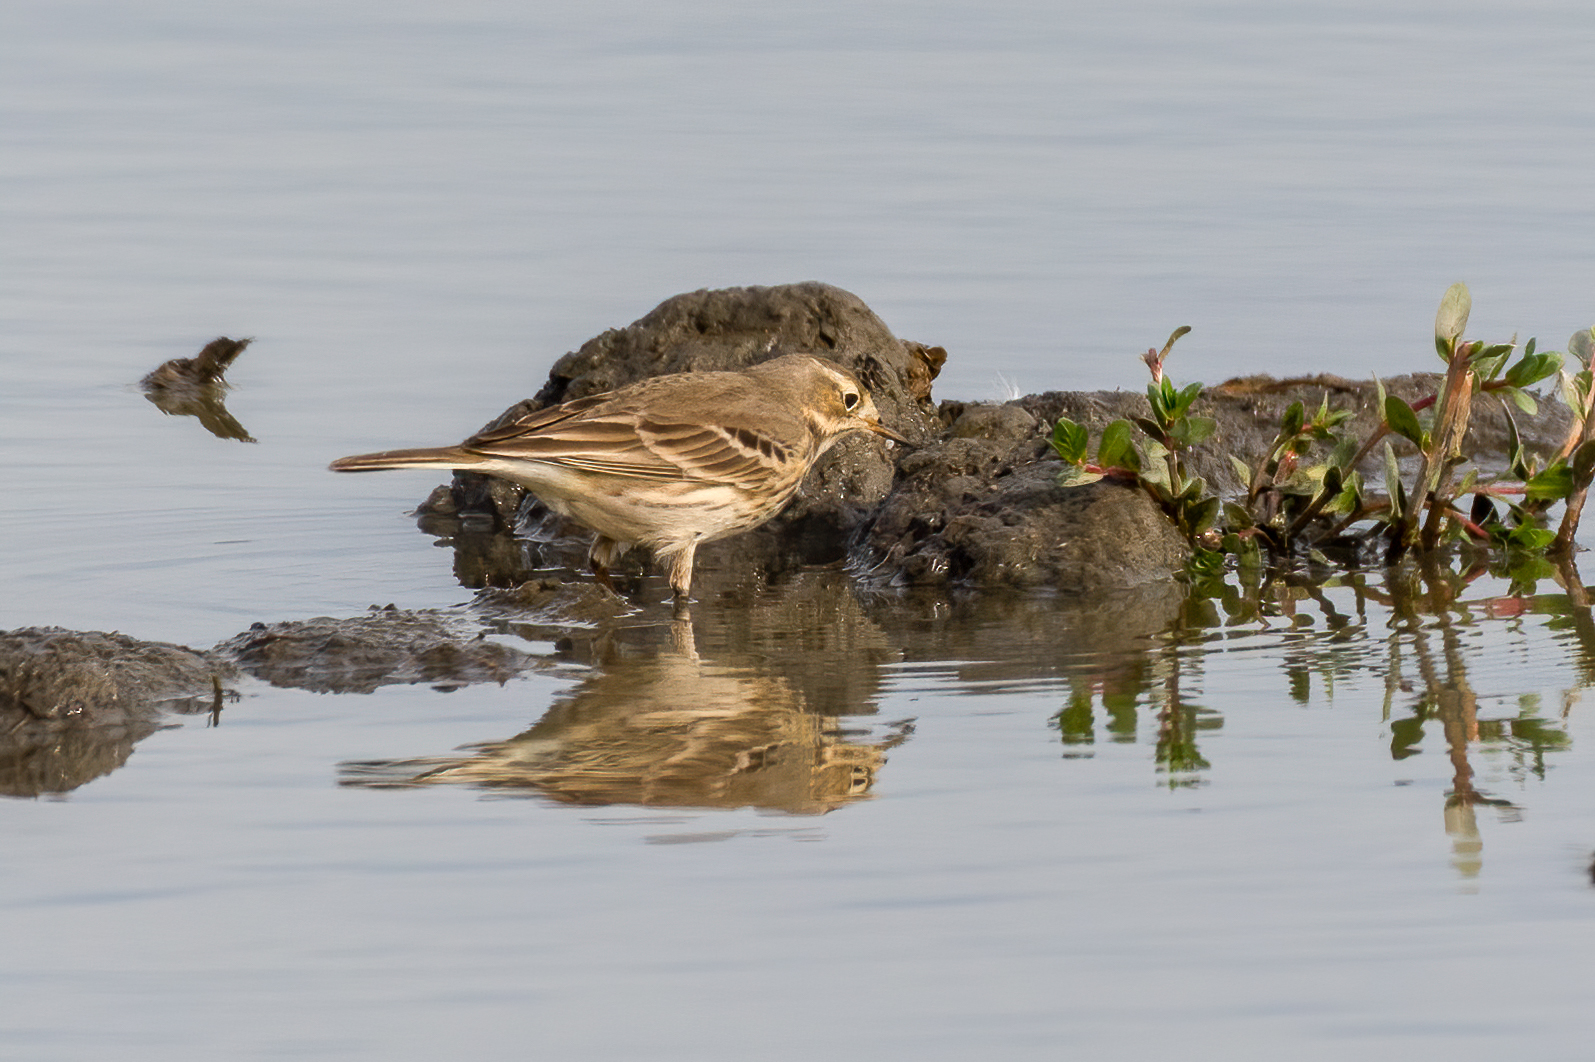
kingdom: Animalia
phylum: Chordata
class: Aves
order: Passeriformes
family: Motacillidae
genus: Anthus
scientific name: Anthus rubescens
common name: Buff-bellied pipit
